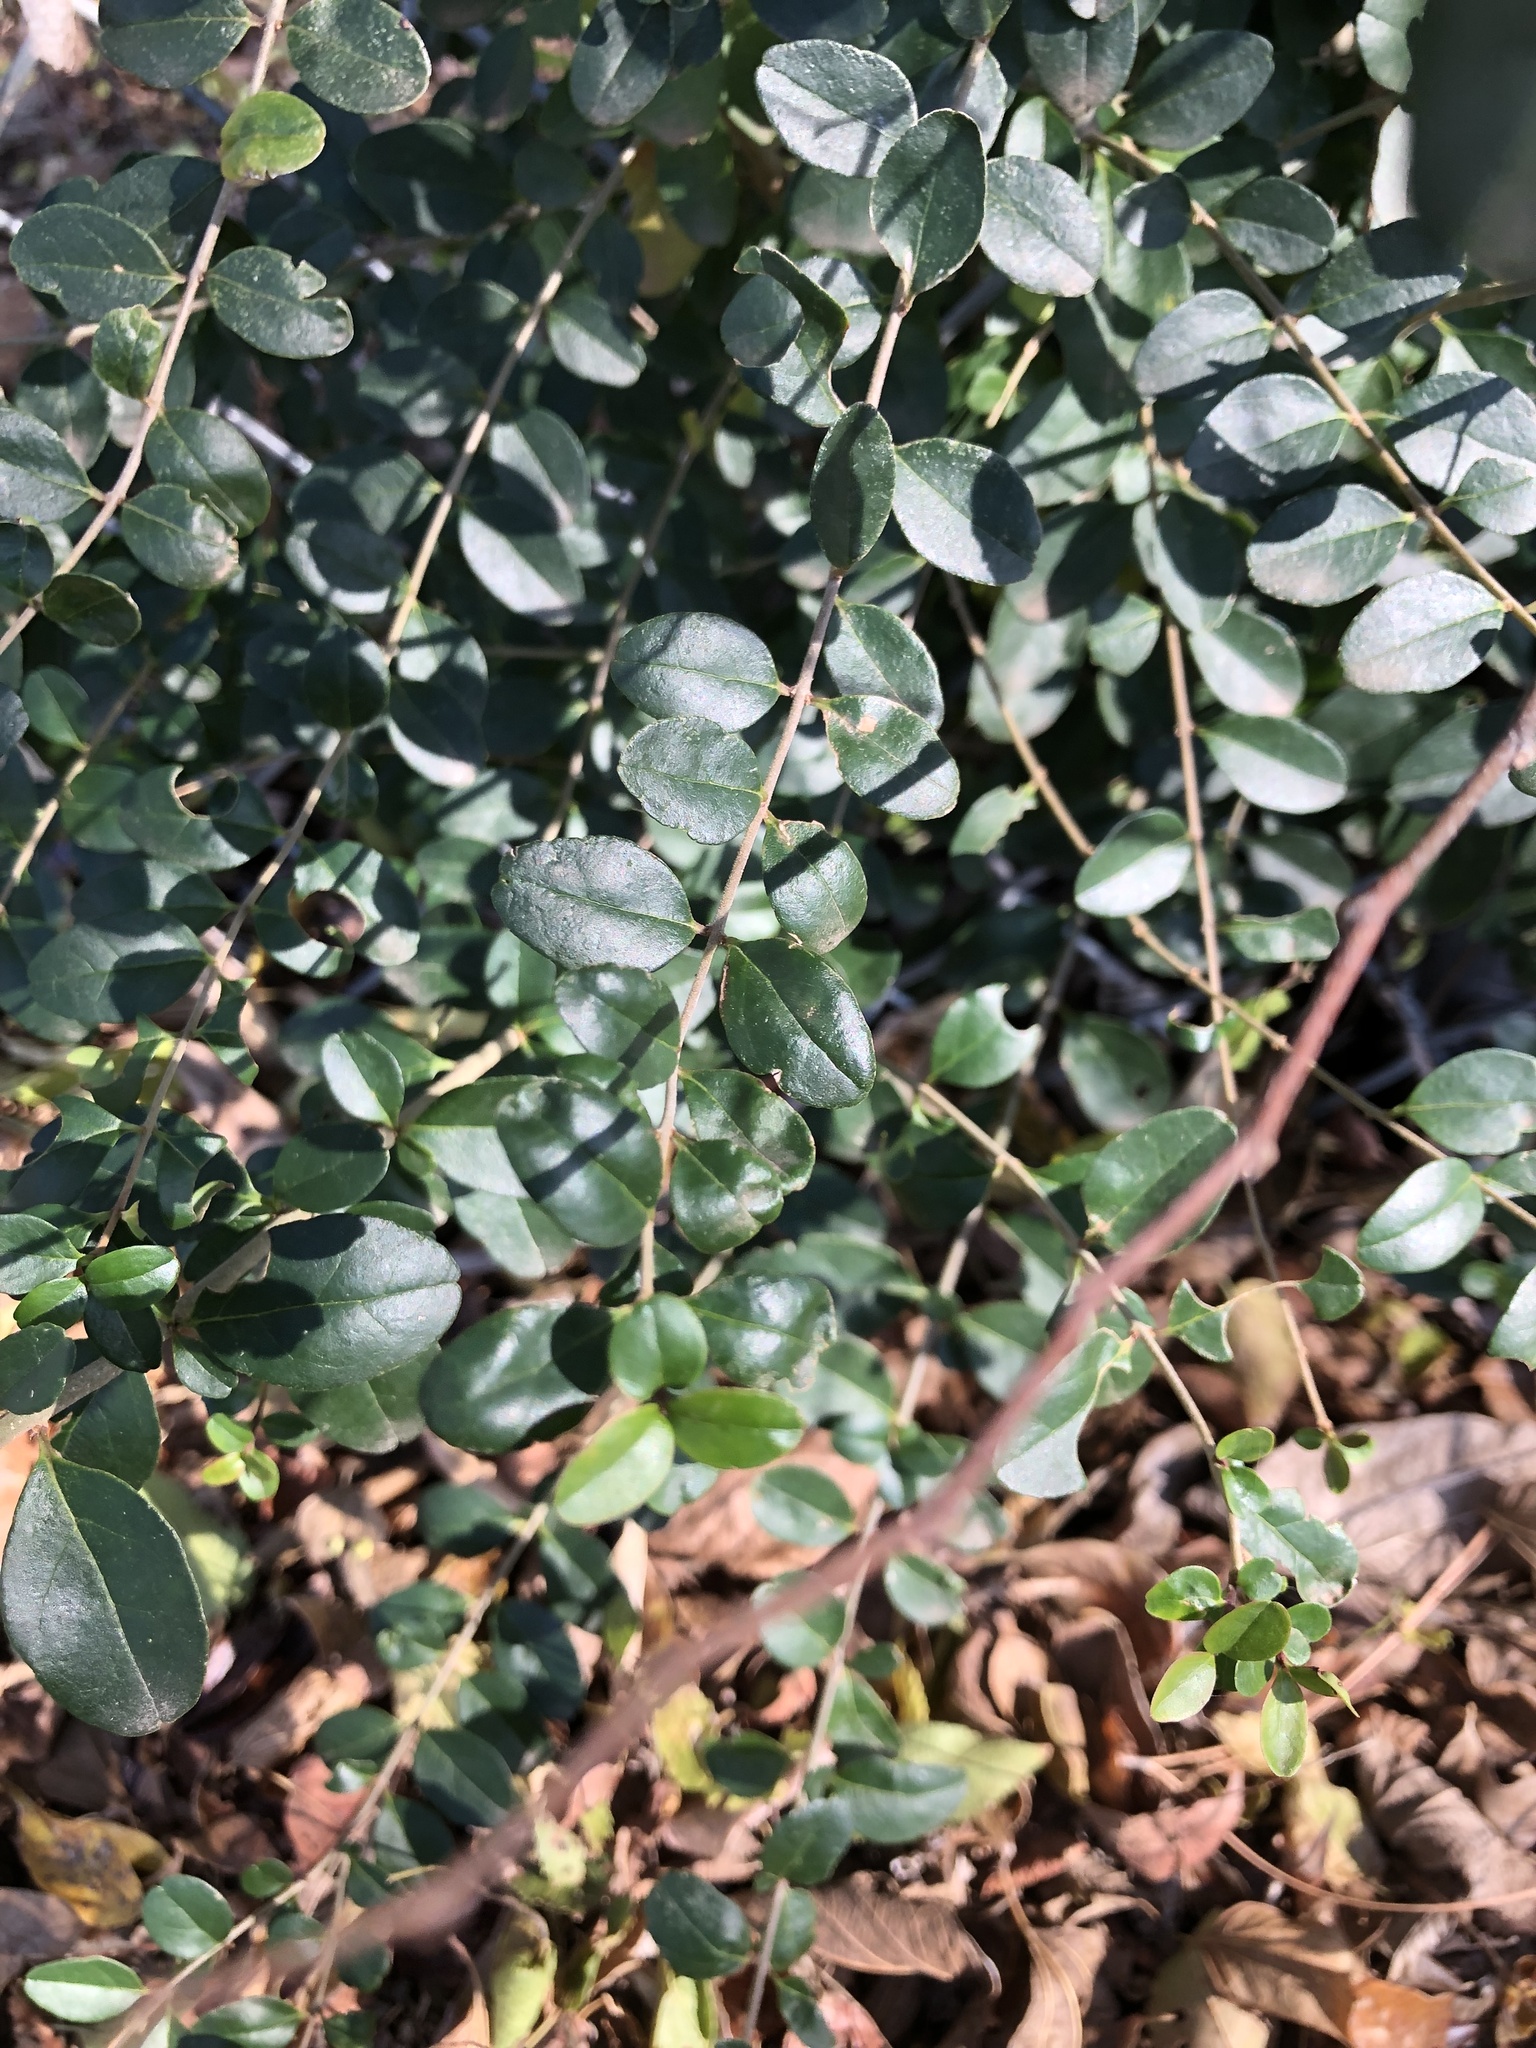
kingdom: Plantae
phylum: Tracheophyta
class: Magnoliopsida
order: Lamiales
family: Oleaceae
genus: Ligustrum
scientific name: Ligustrum sinense
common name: Chinese privet
